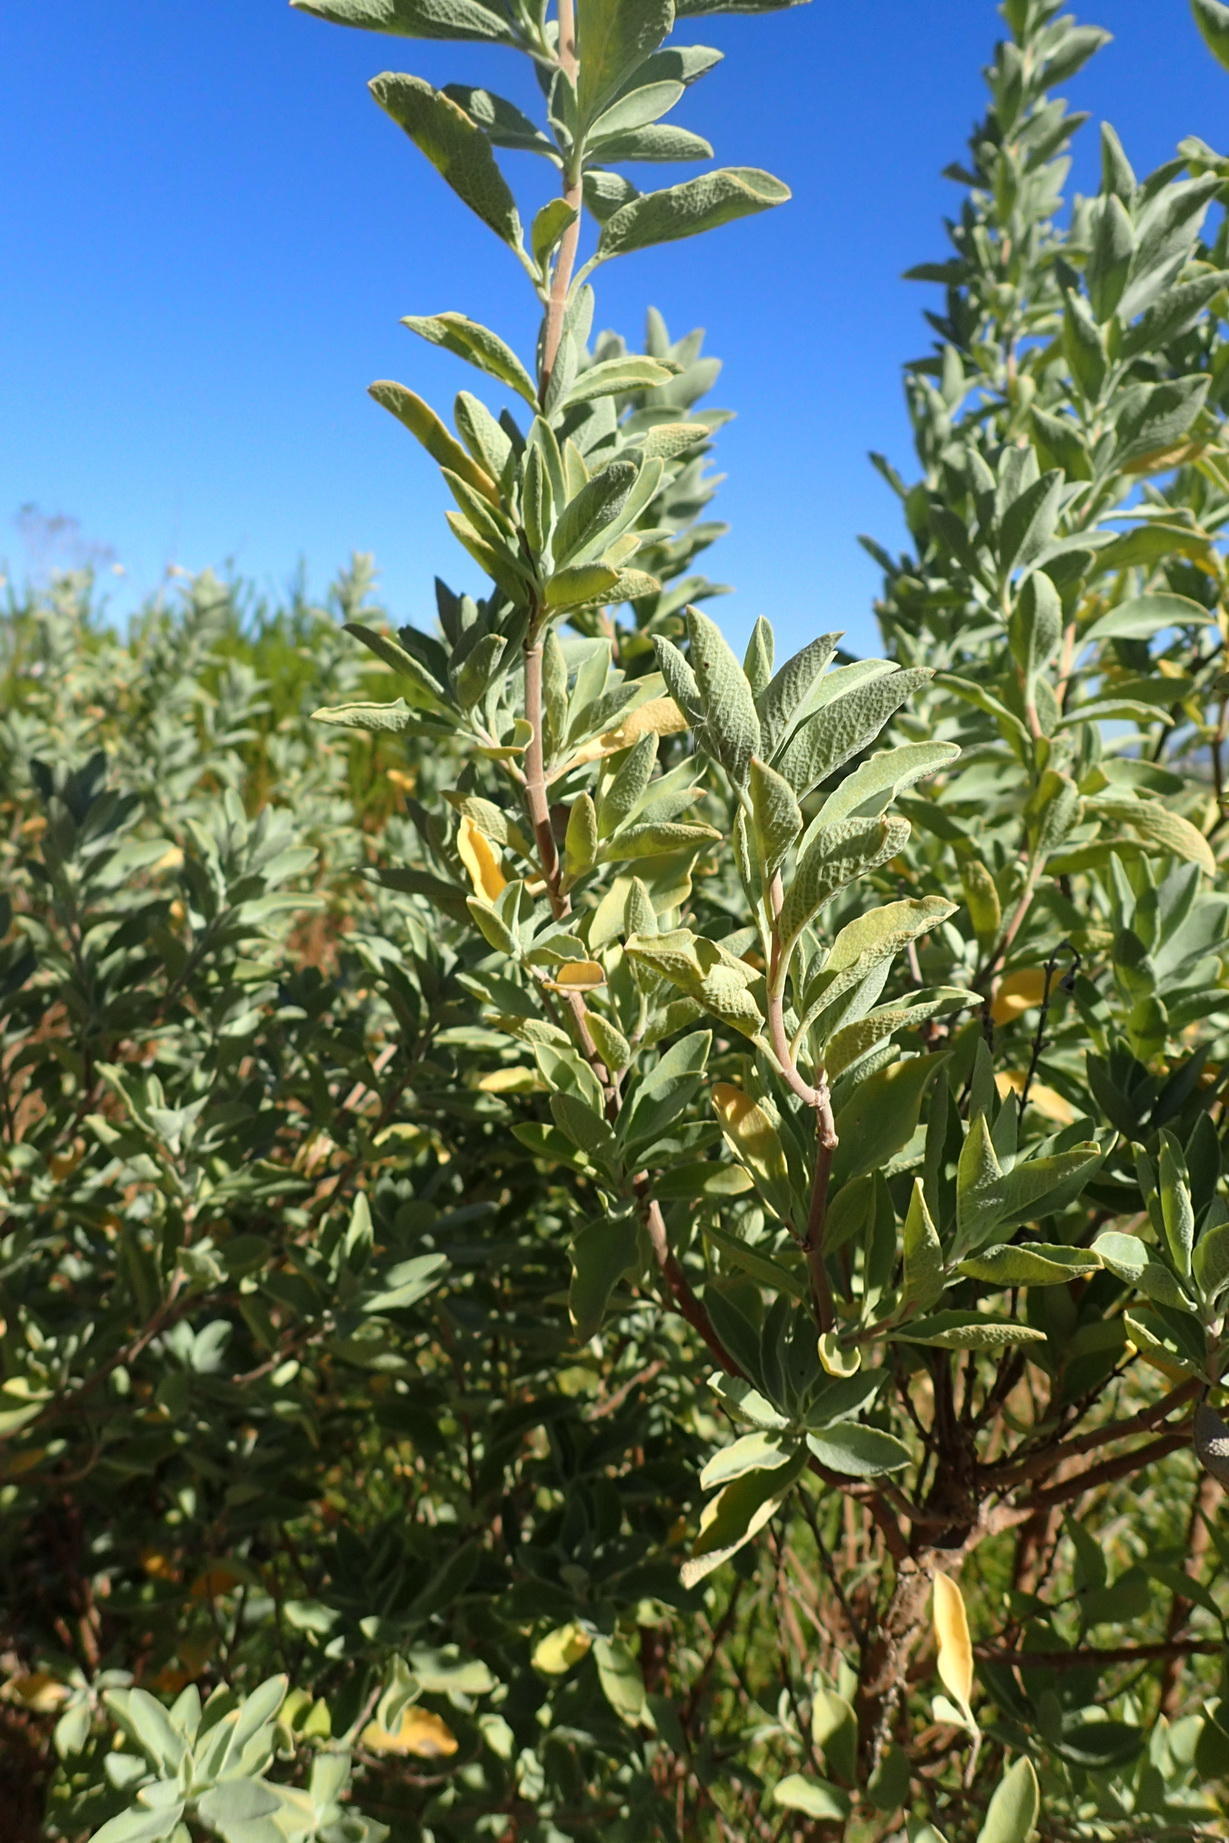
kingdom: Plantae
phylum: Tracheophyta
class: Magnoliopsida
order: Lamiales
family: Lamiaceae
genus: Salvia
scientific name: Salvia aurea
